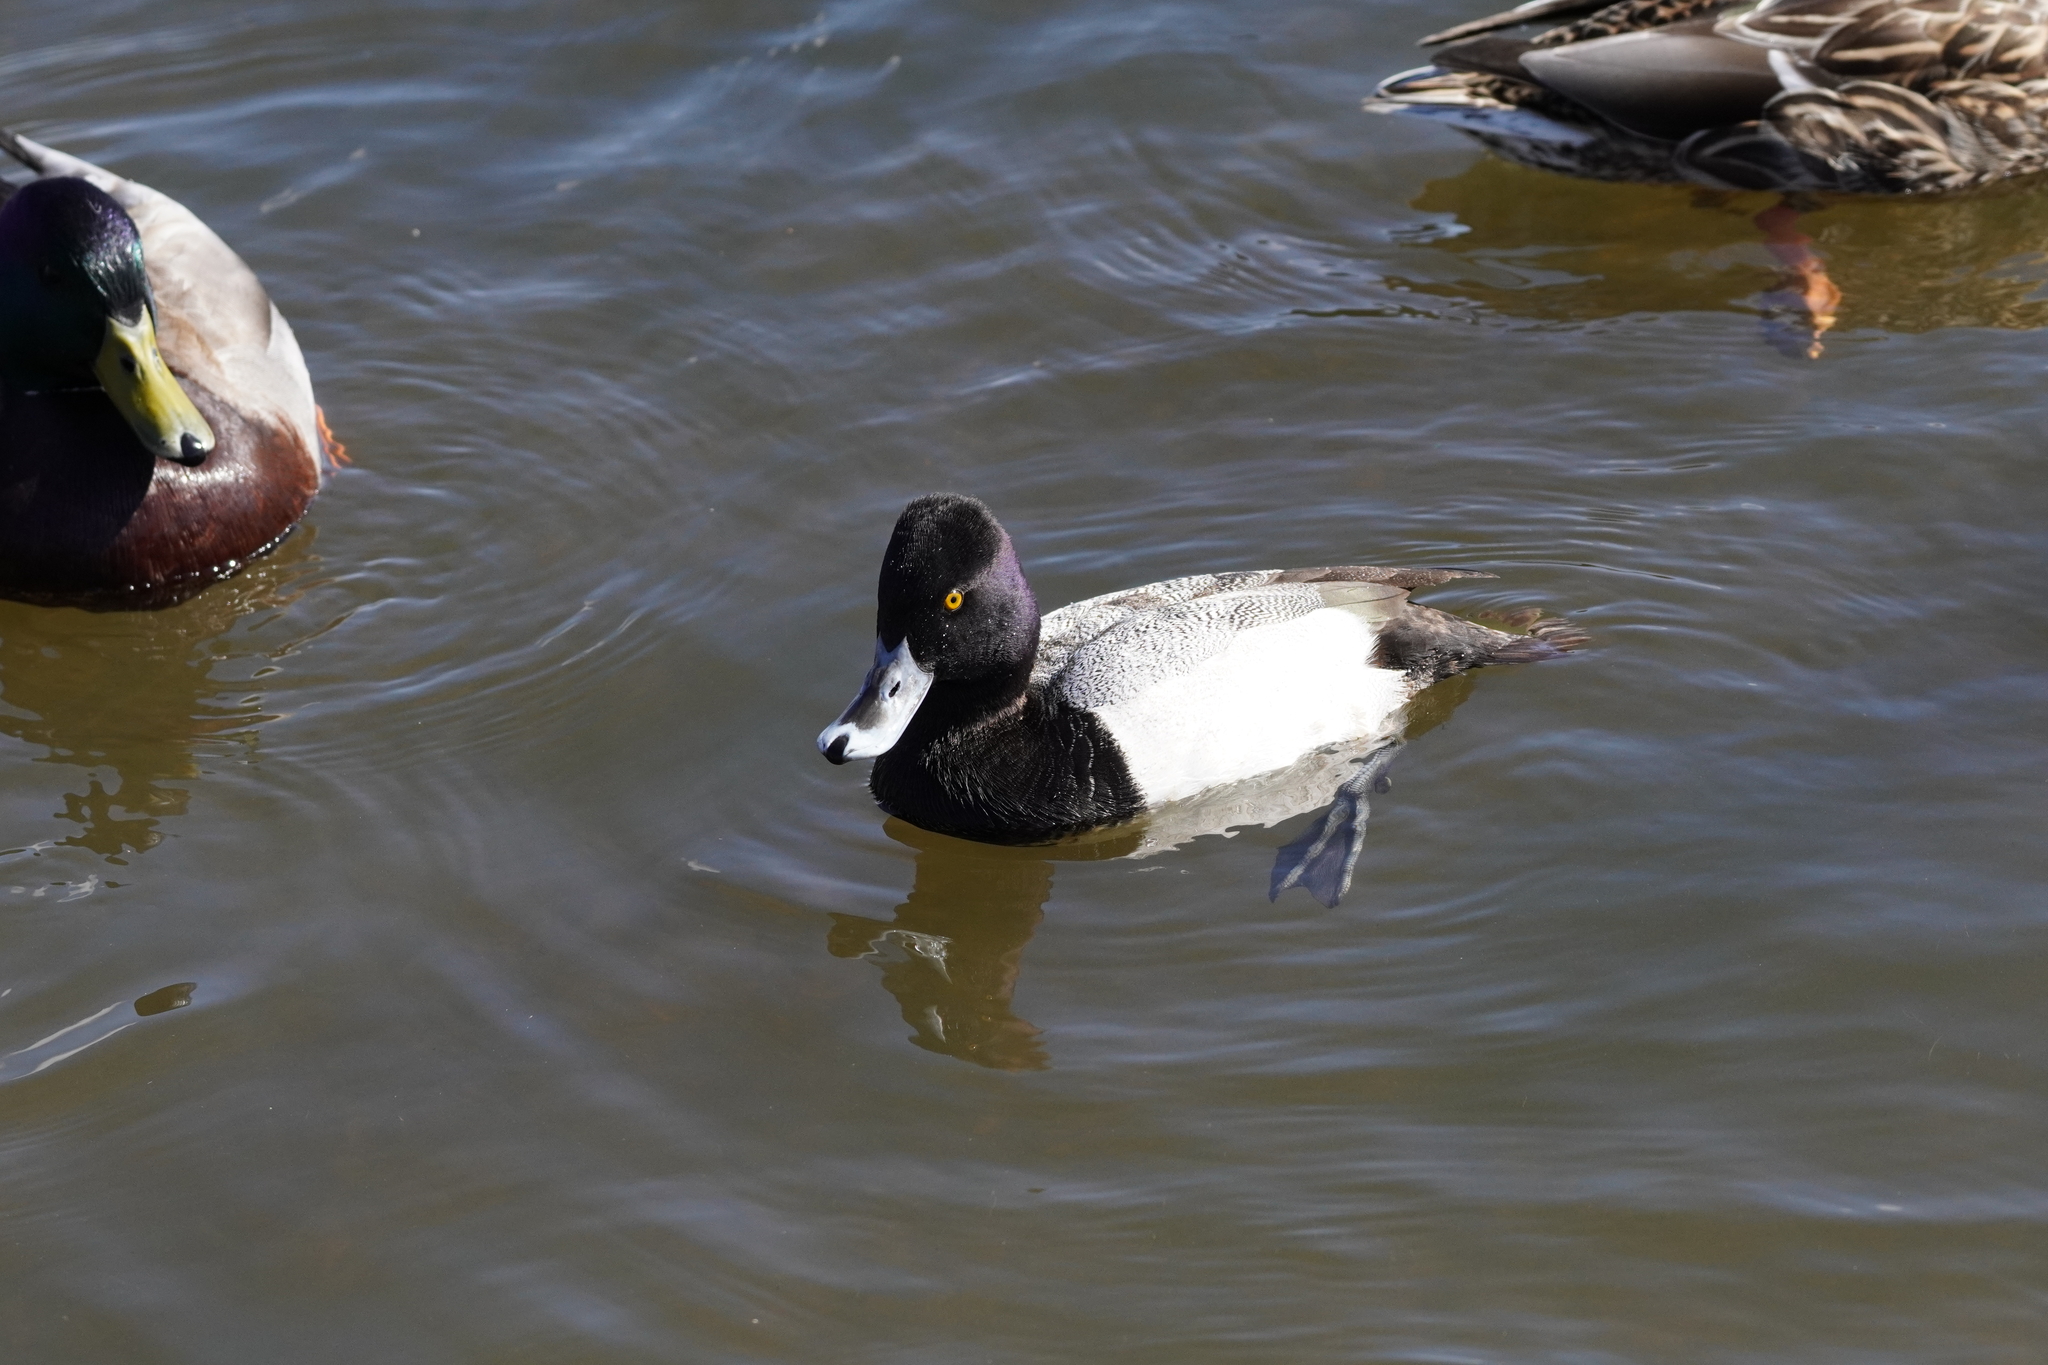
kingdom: Animalia
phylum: Chordata
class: Aves
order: Anseriformes
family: Anatidae
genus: Aythya
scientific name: Aythya affinis
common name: Lesser scaup
